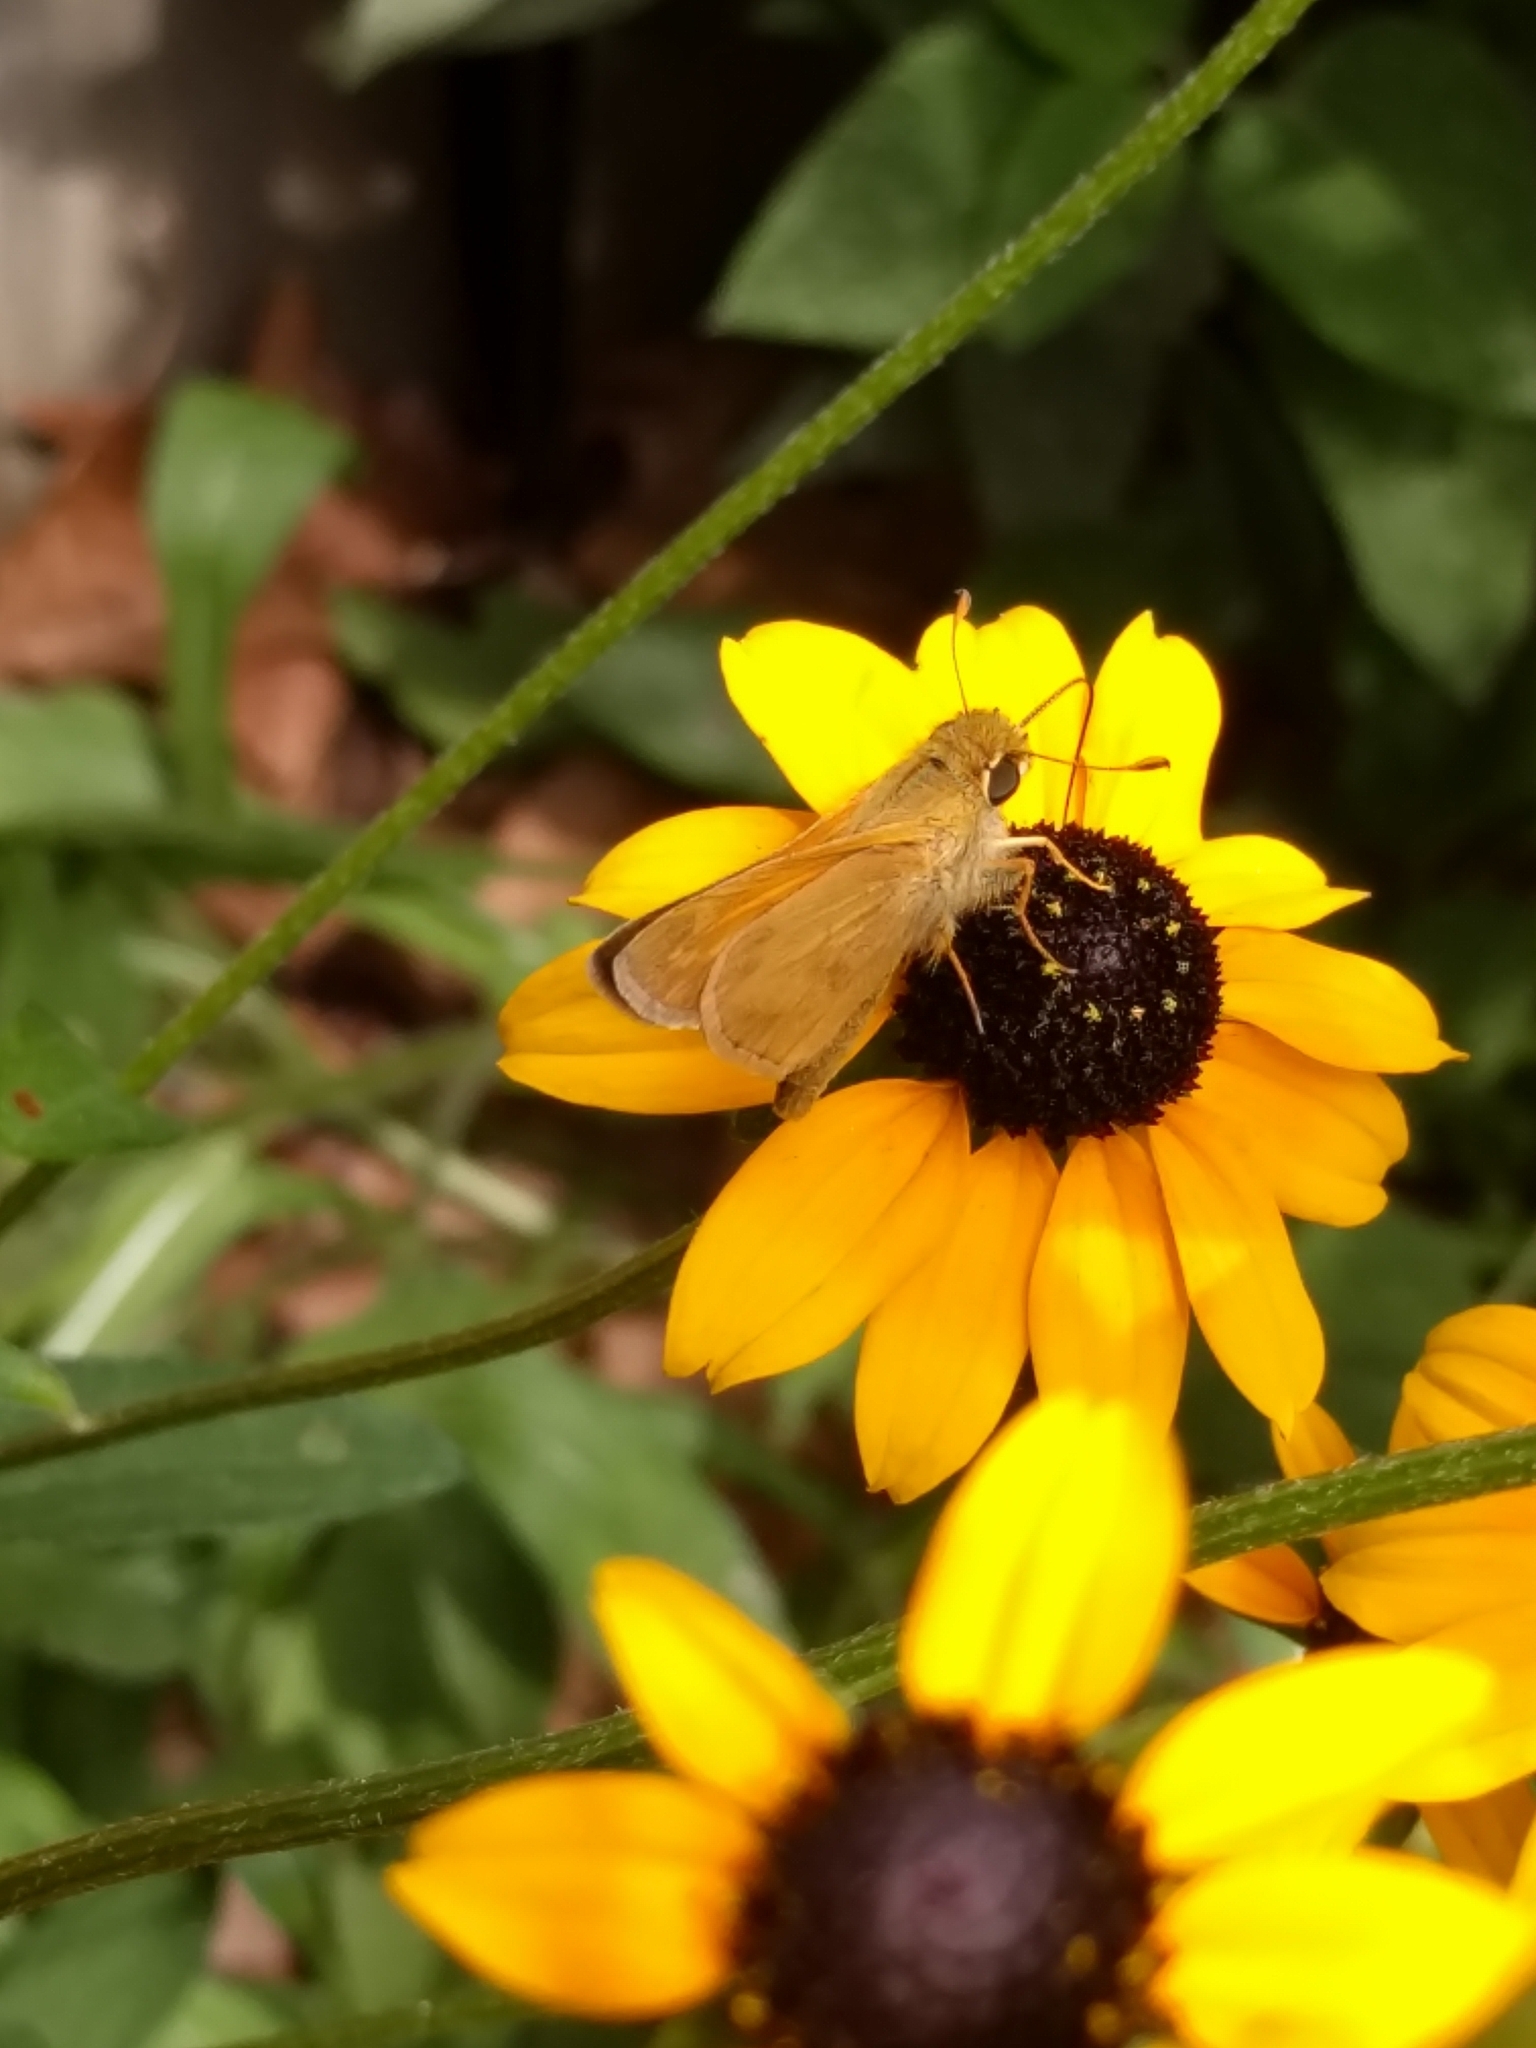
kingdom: Animalia
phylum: Arthropoda
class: Insecta
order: Lepidoptera
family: Hesperiidae
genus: Atalopedes
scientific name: Atalopedes
